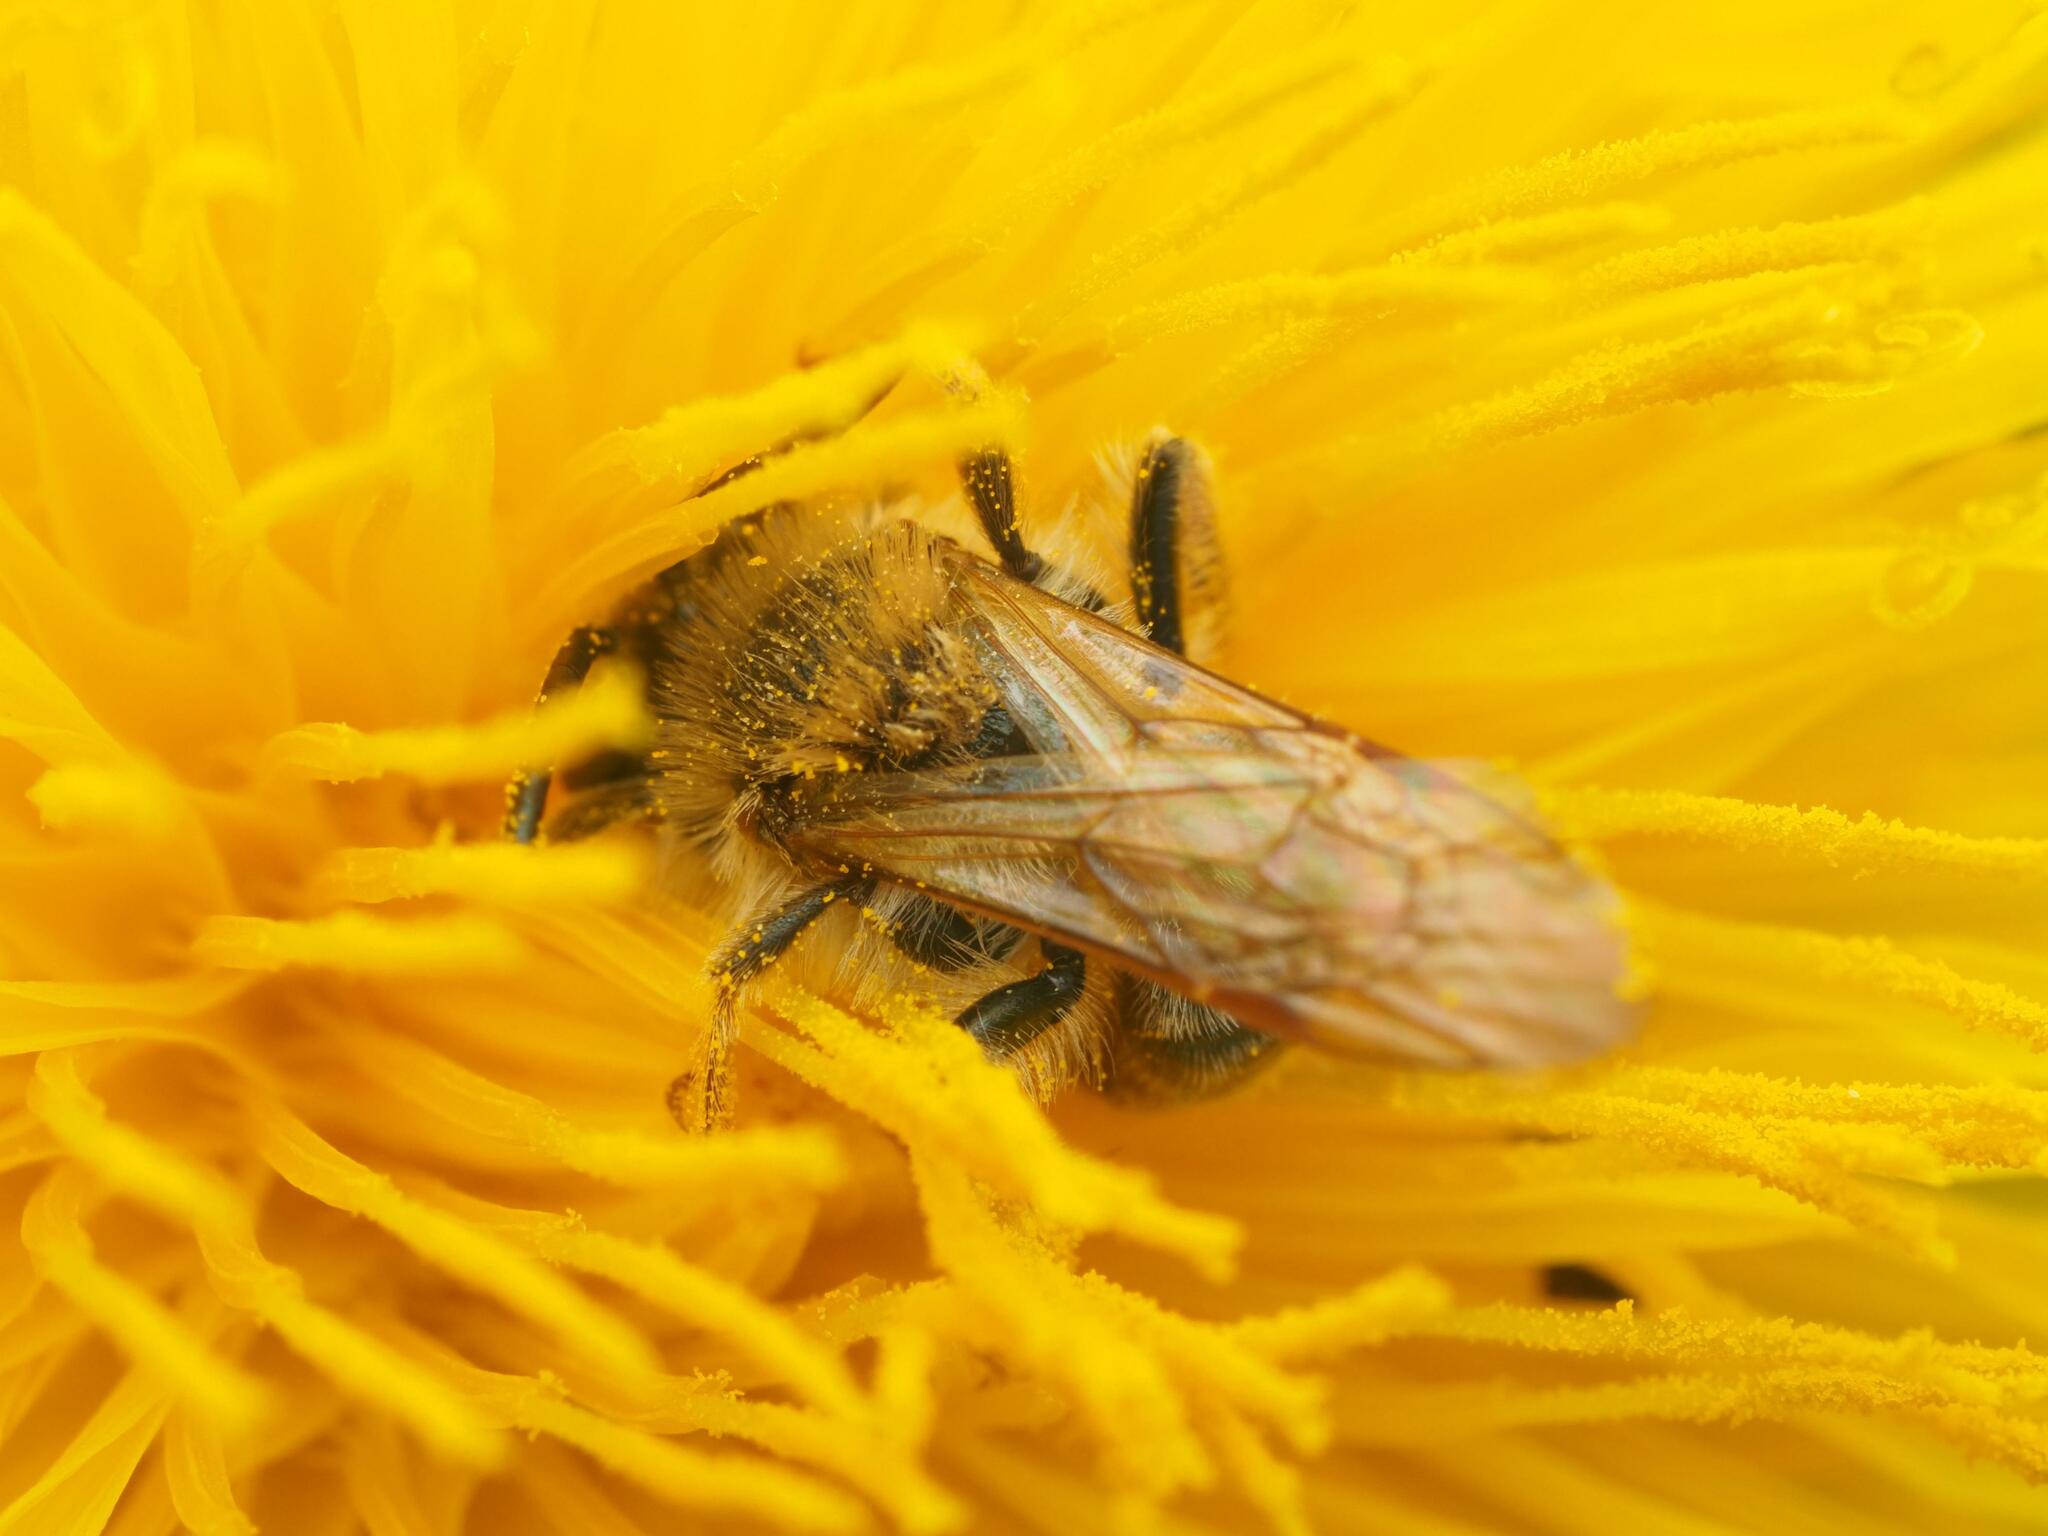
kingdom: Animalia
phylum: Arthropoda
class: Insecta
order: Hymenoptera
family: Andrenidae
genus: Andrena
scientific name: Andrena haemorrhoa
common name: Early mining bee
